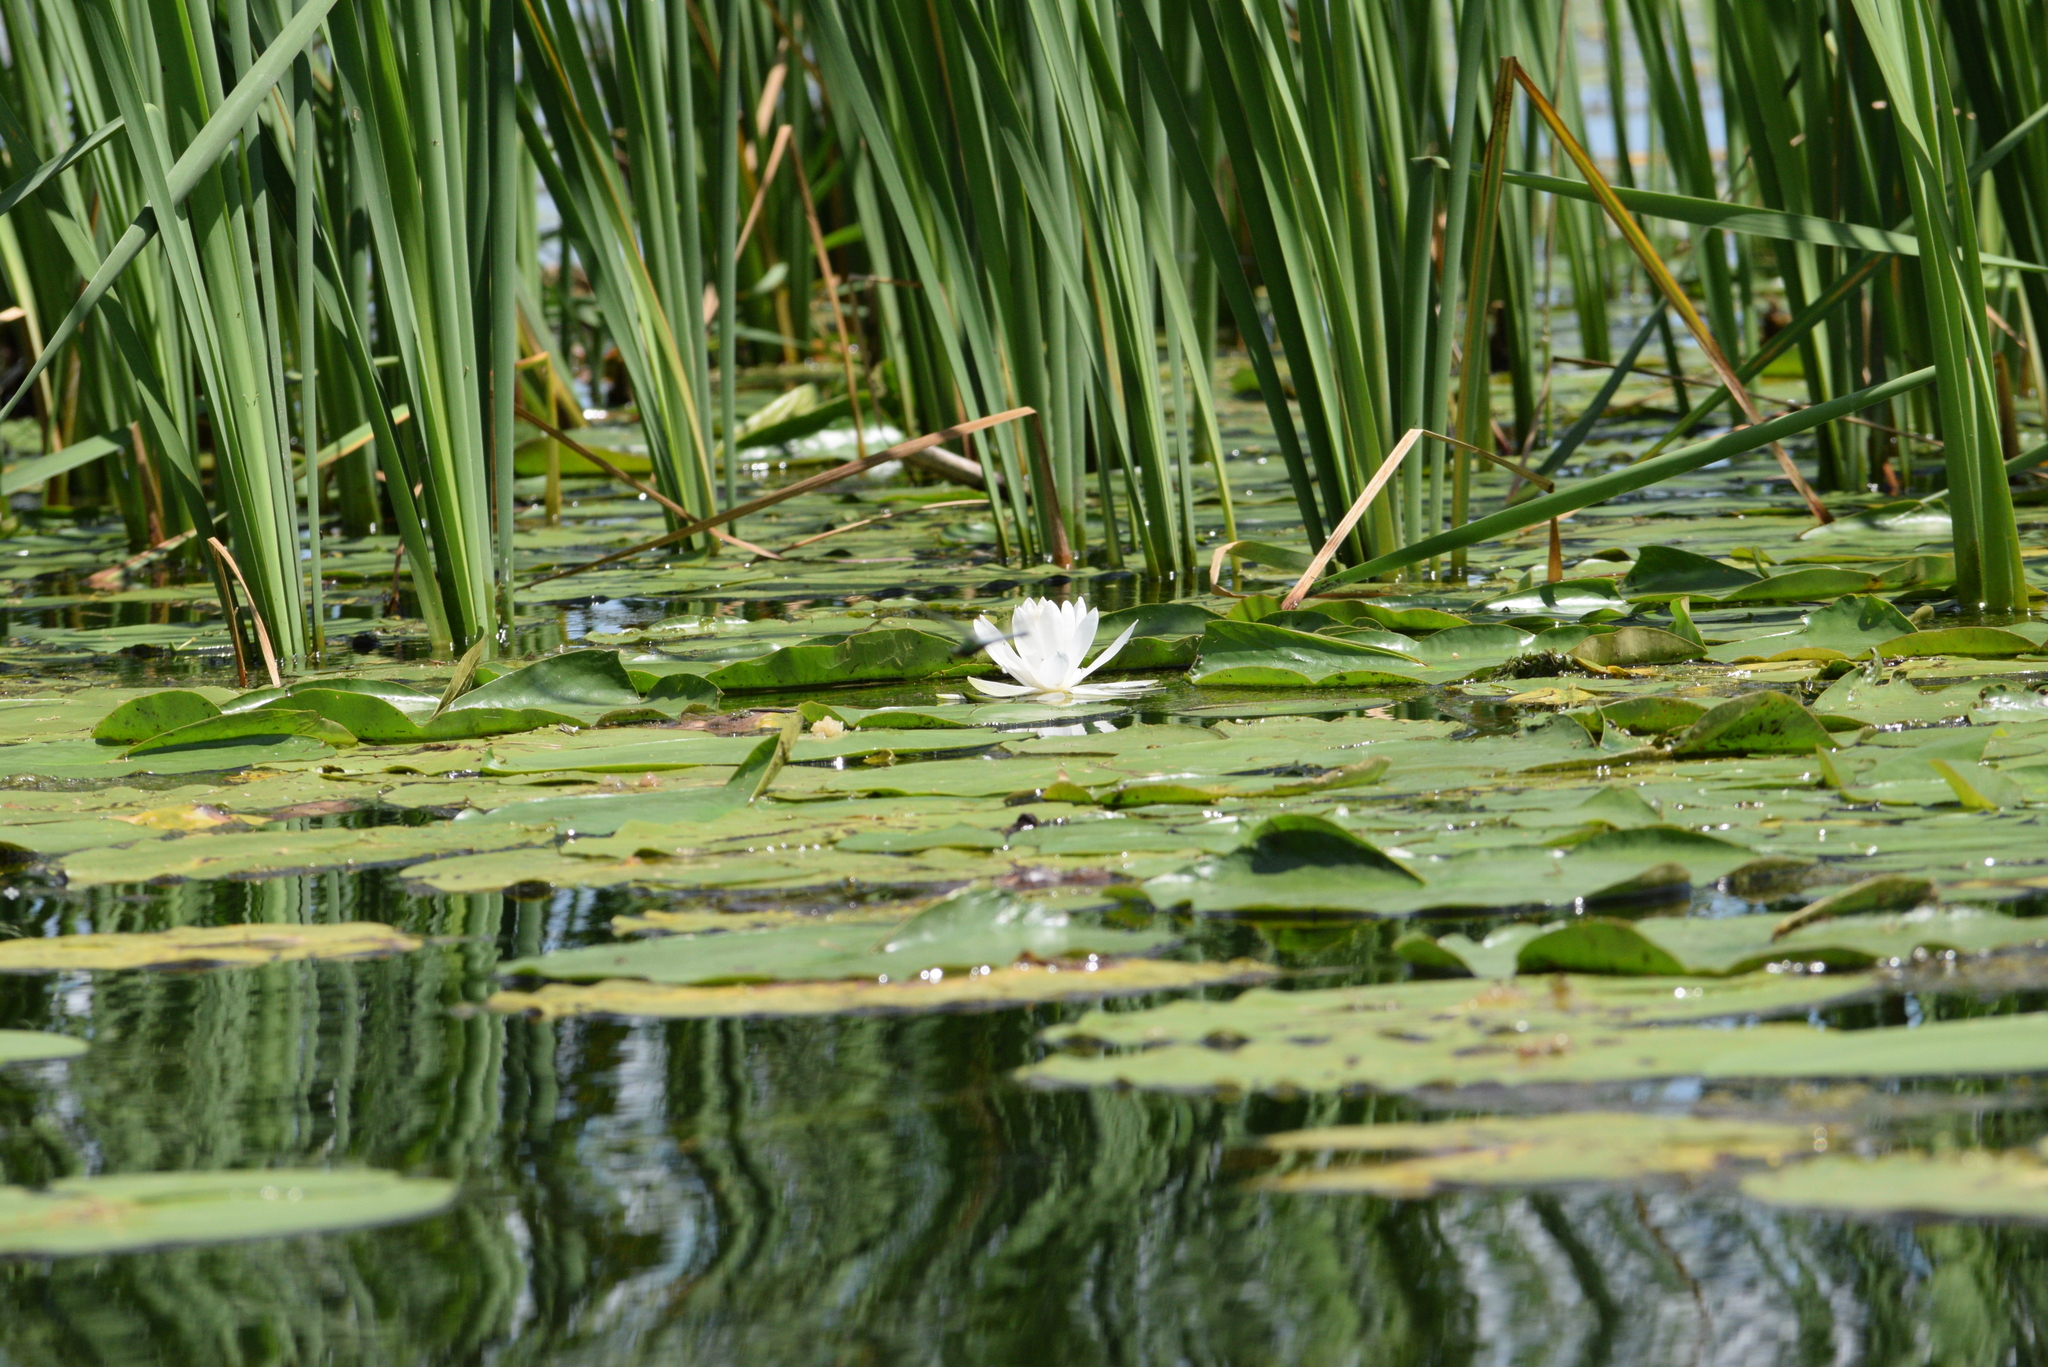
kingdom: Plantae
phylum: Tracheophyta
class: Magnoliopsida
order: Nymphaeales
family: Nymphaeaceae
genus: Nymphaea
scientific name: Nymphaea odorata
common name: Fragrant water-lily
